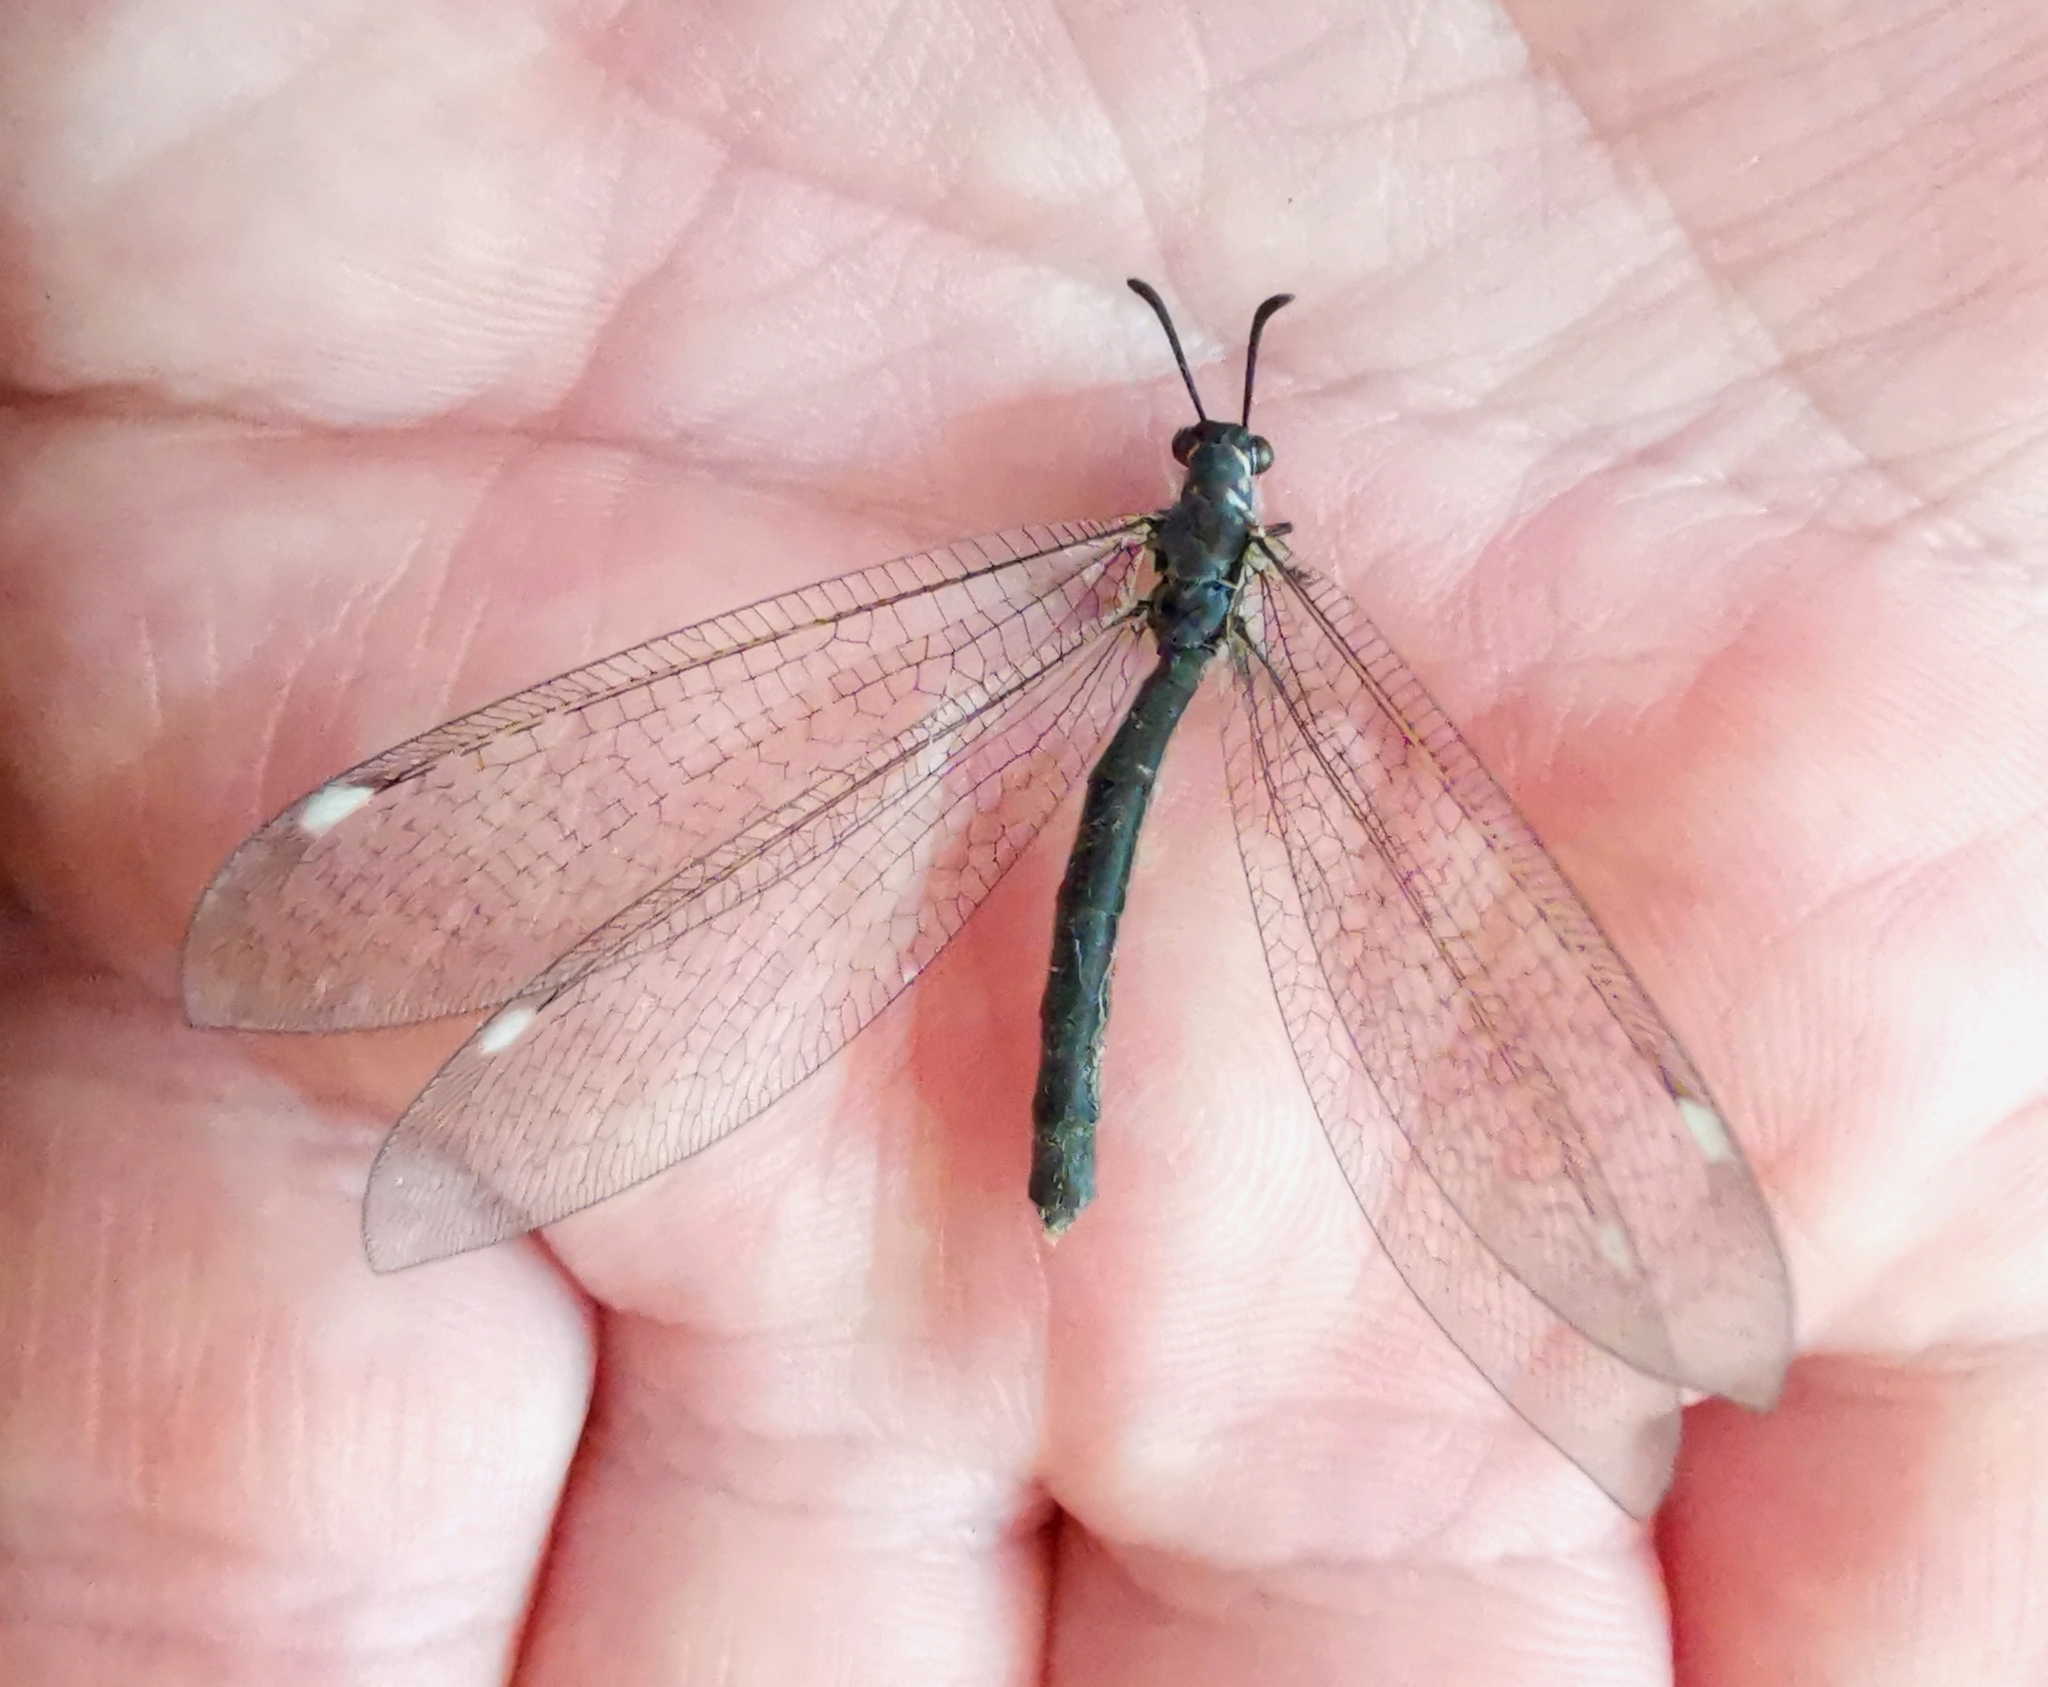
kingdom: Animalia
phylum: Arthropoda
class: Insecta
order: Neuroptera
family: Myrmeleontidae
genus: Myrmeleon
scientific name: Myrmeleon formicarius
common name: Ant-lion
